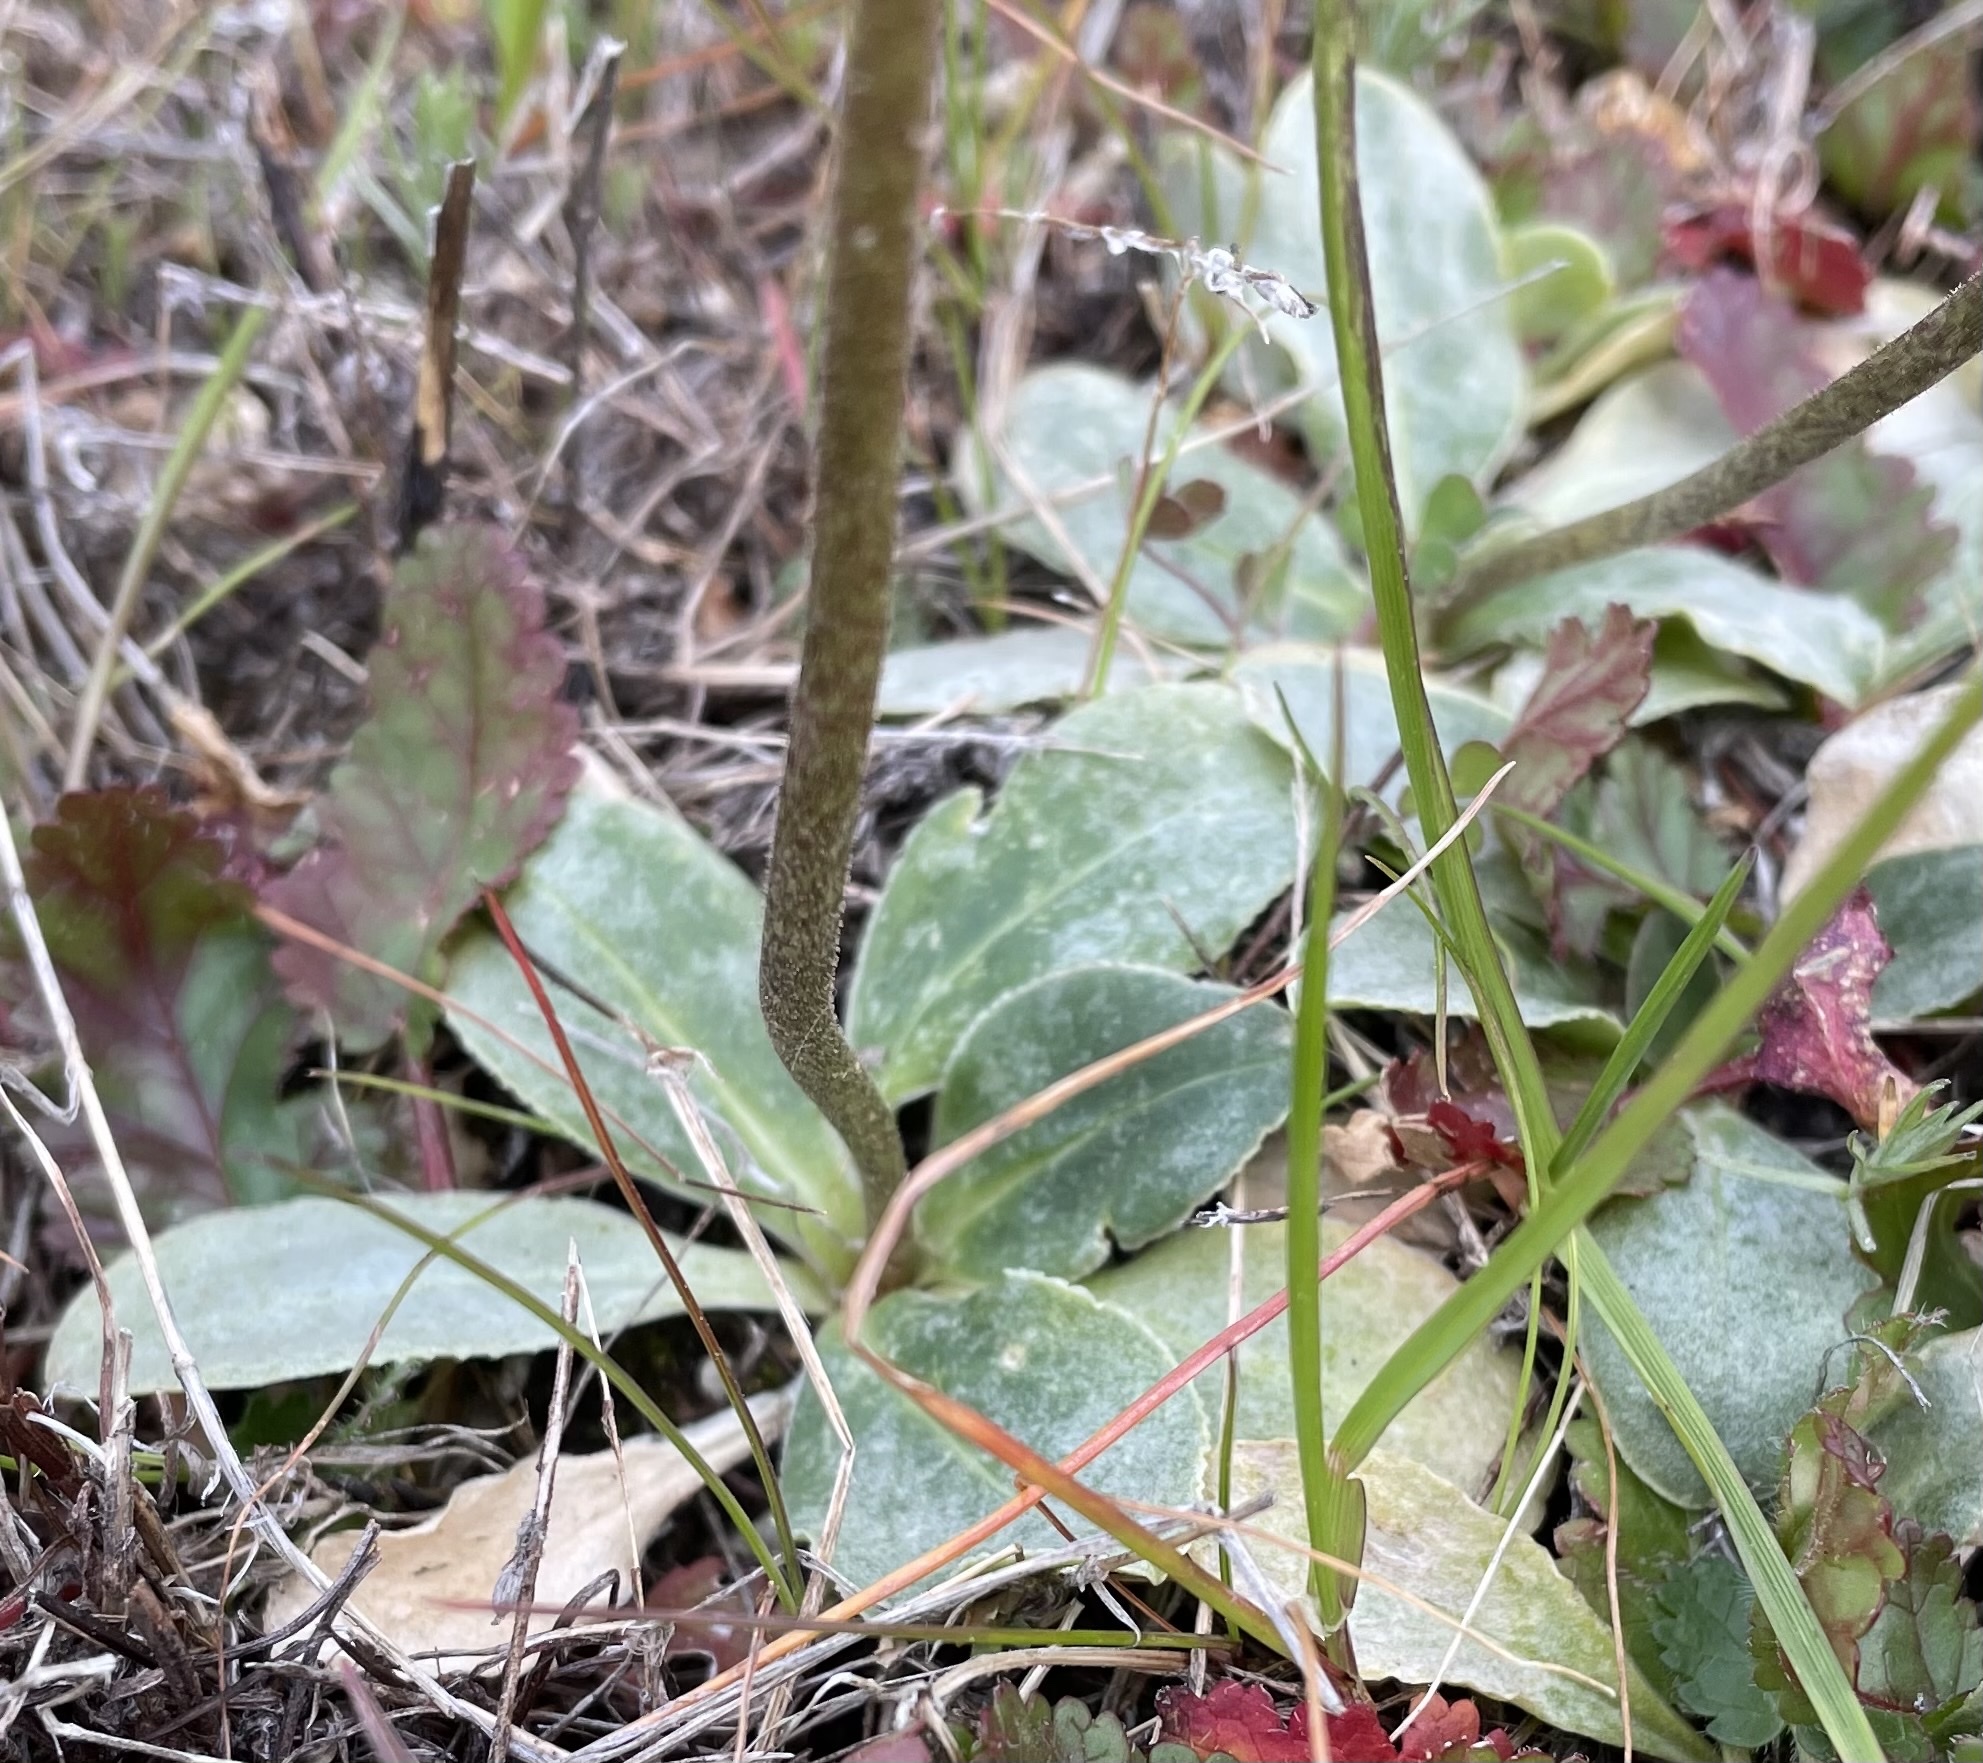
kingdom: Plantae
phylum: Tracheophyta
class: Magnoliopsida
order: Ericales
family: Primulaceae
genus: Dodecatheon
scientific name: Dodecatheon clevelandii
